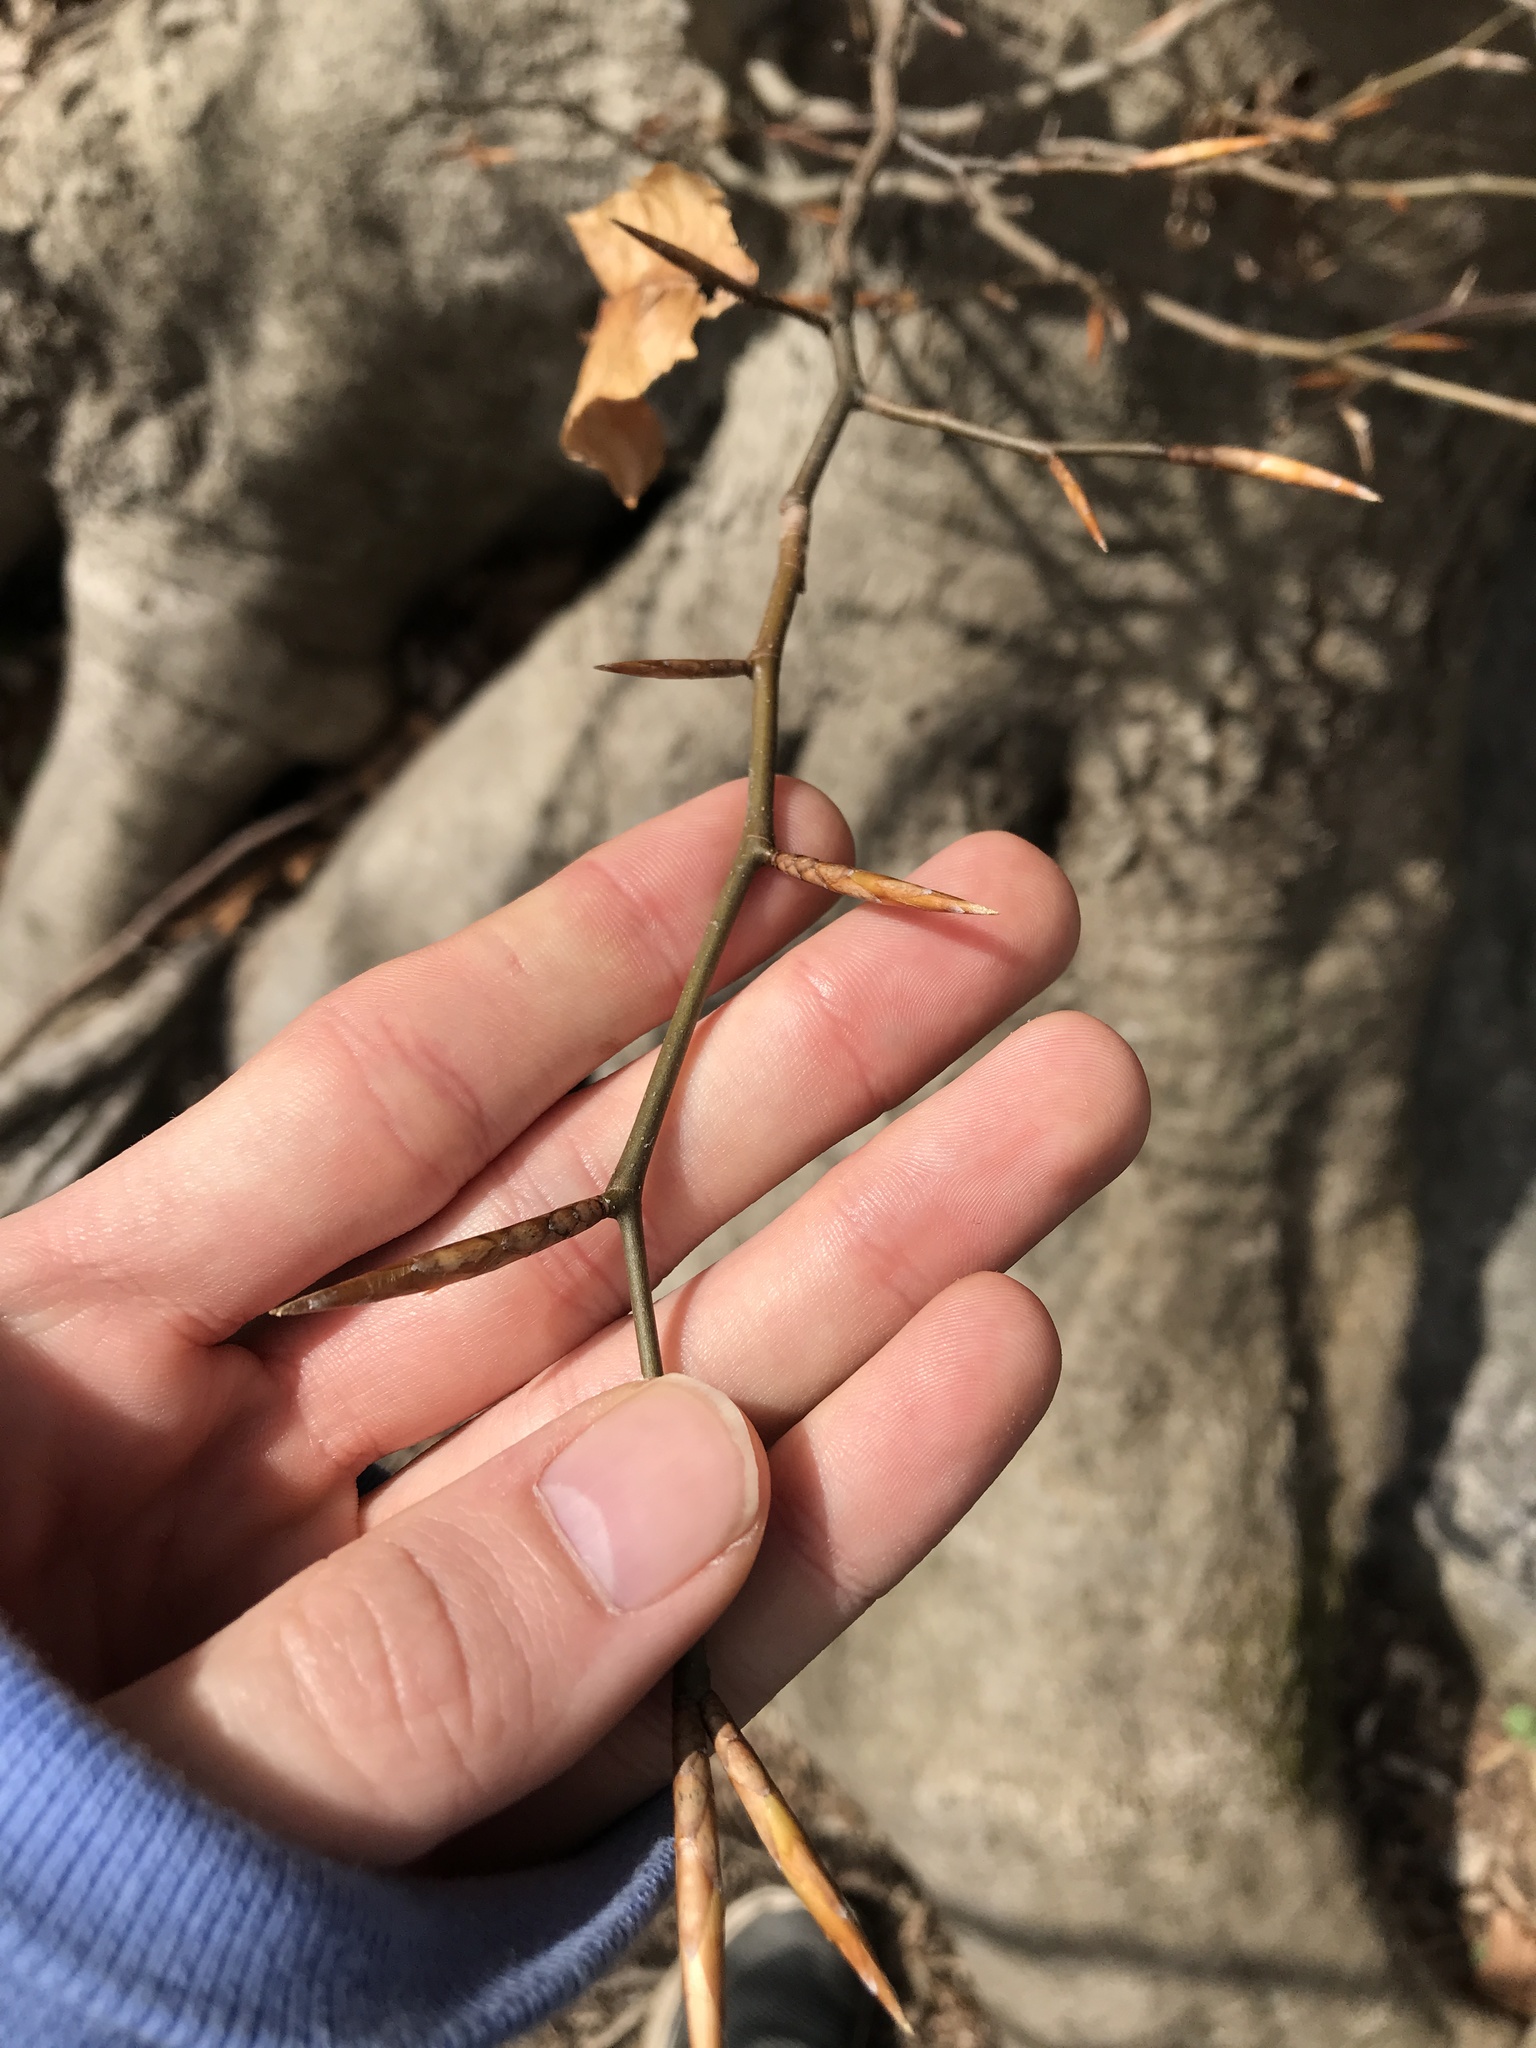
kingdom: Plantae
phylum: Tracheophyta
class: Magnoliopsida
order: Fagales
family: Fagaceae
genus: Fagus
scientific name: Fagus grandifolia
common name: American beech
